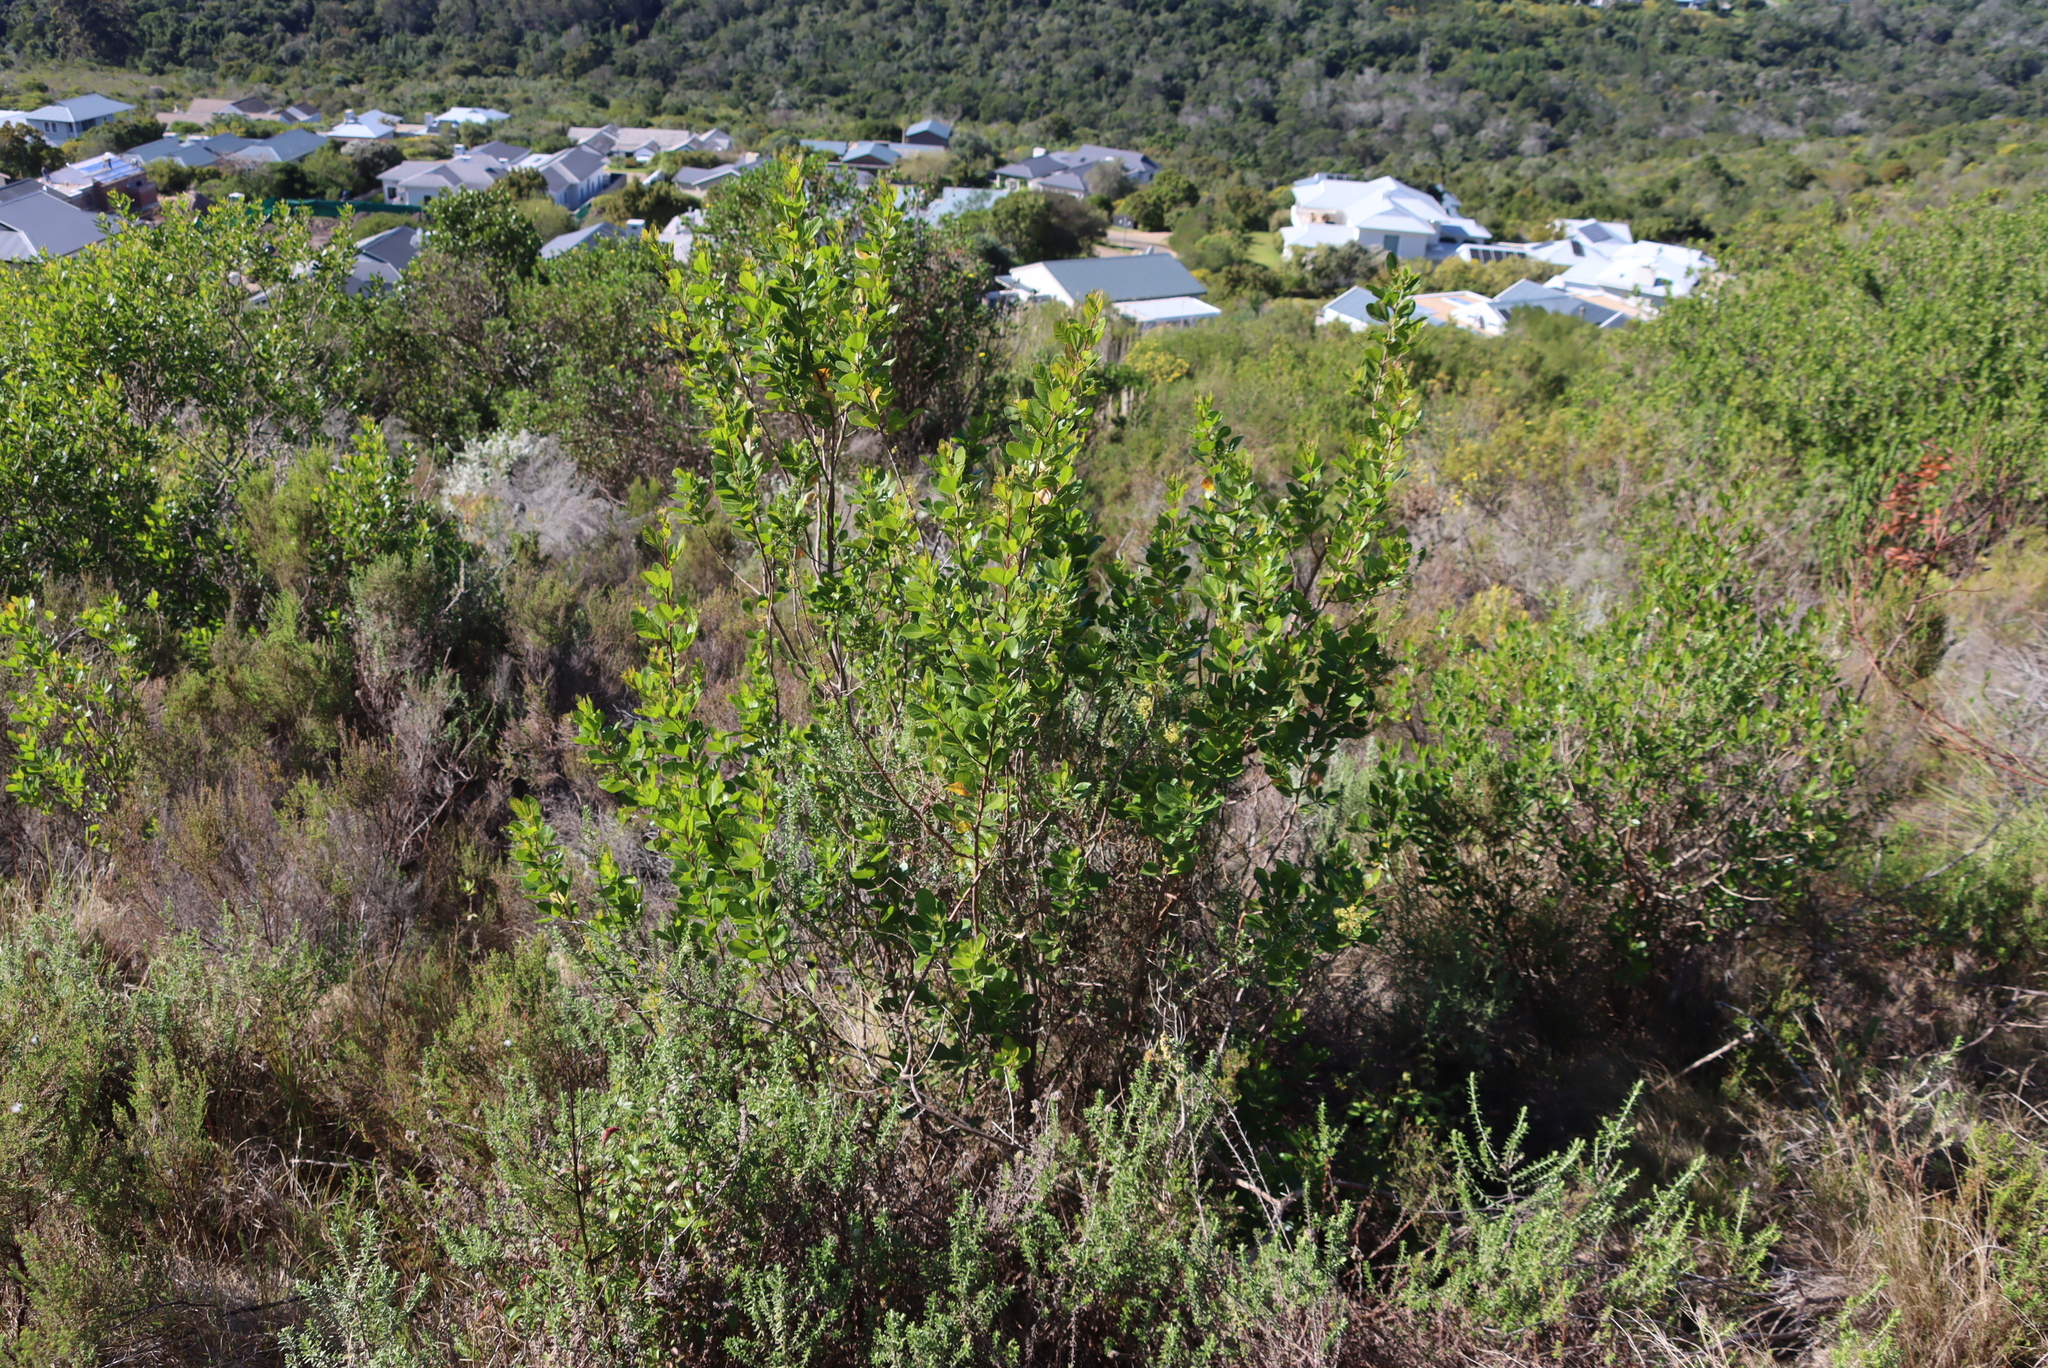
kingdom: Plantae
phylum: Tracheophyta
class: Magnoliopsida
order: Sapindales
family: Anacardiaceae
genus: Searsia
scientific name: Searsia lucida
